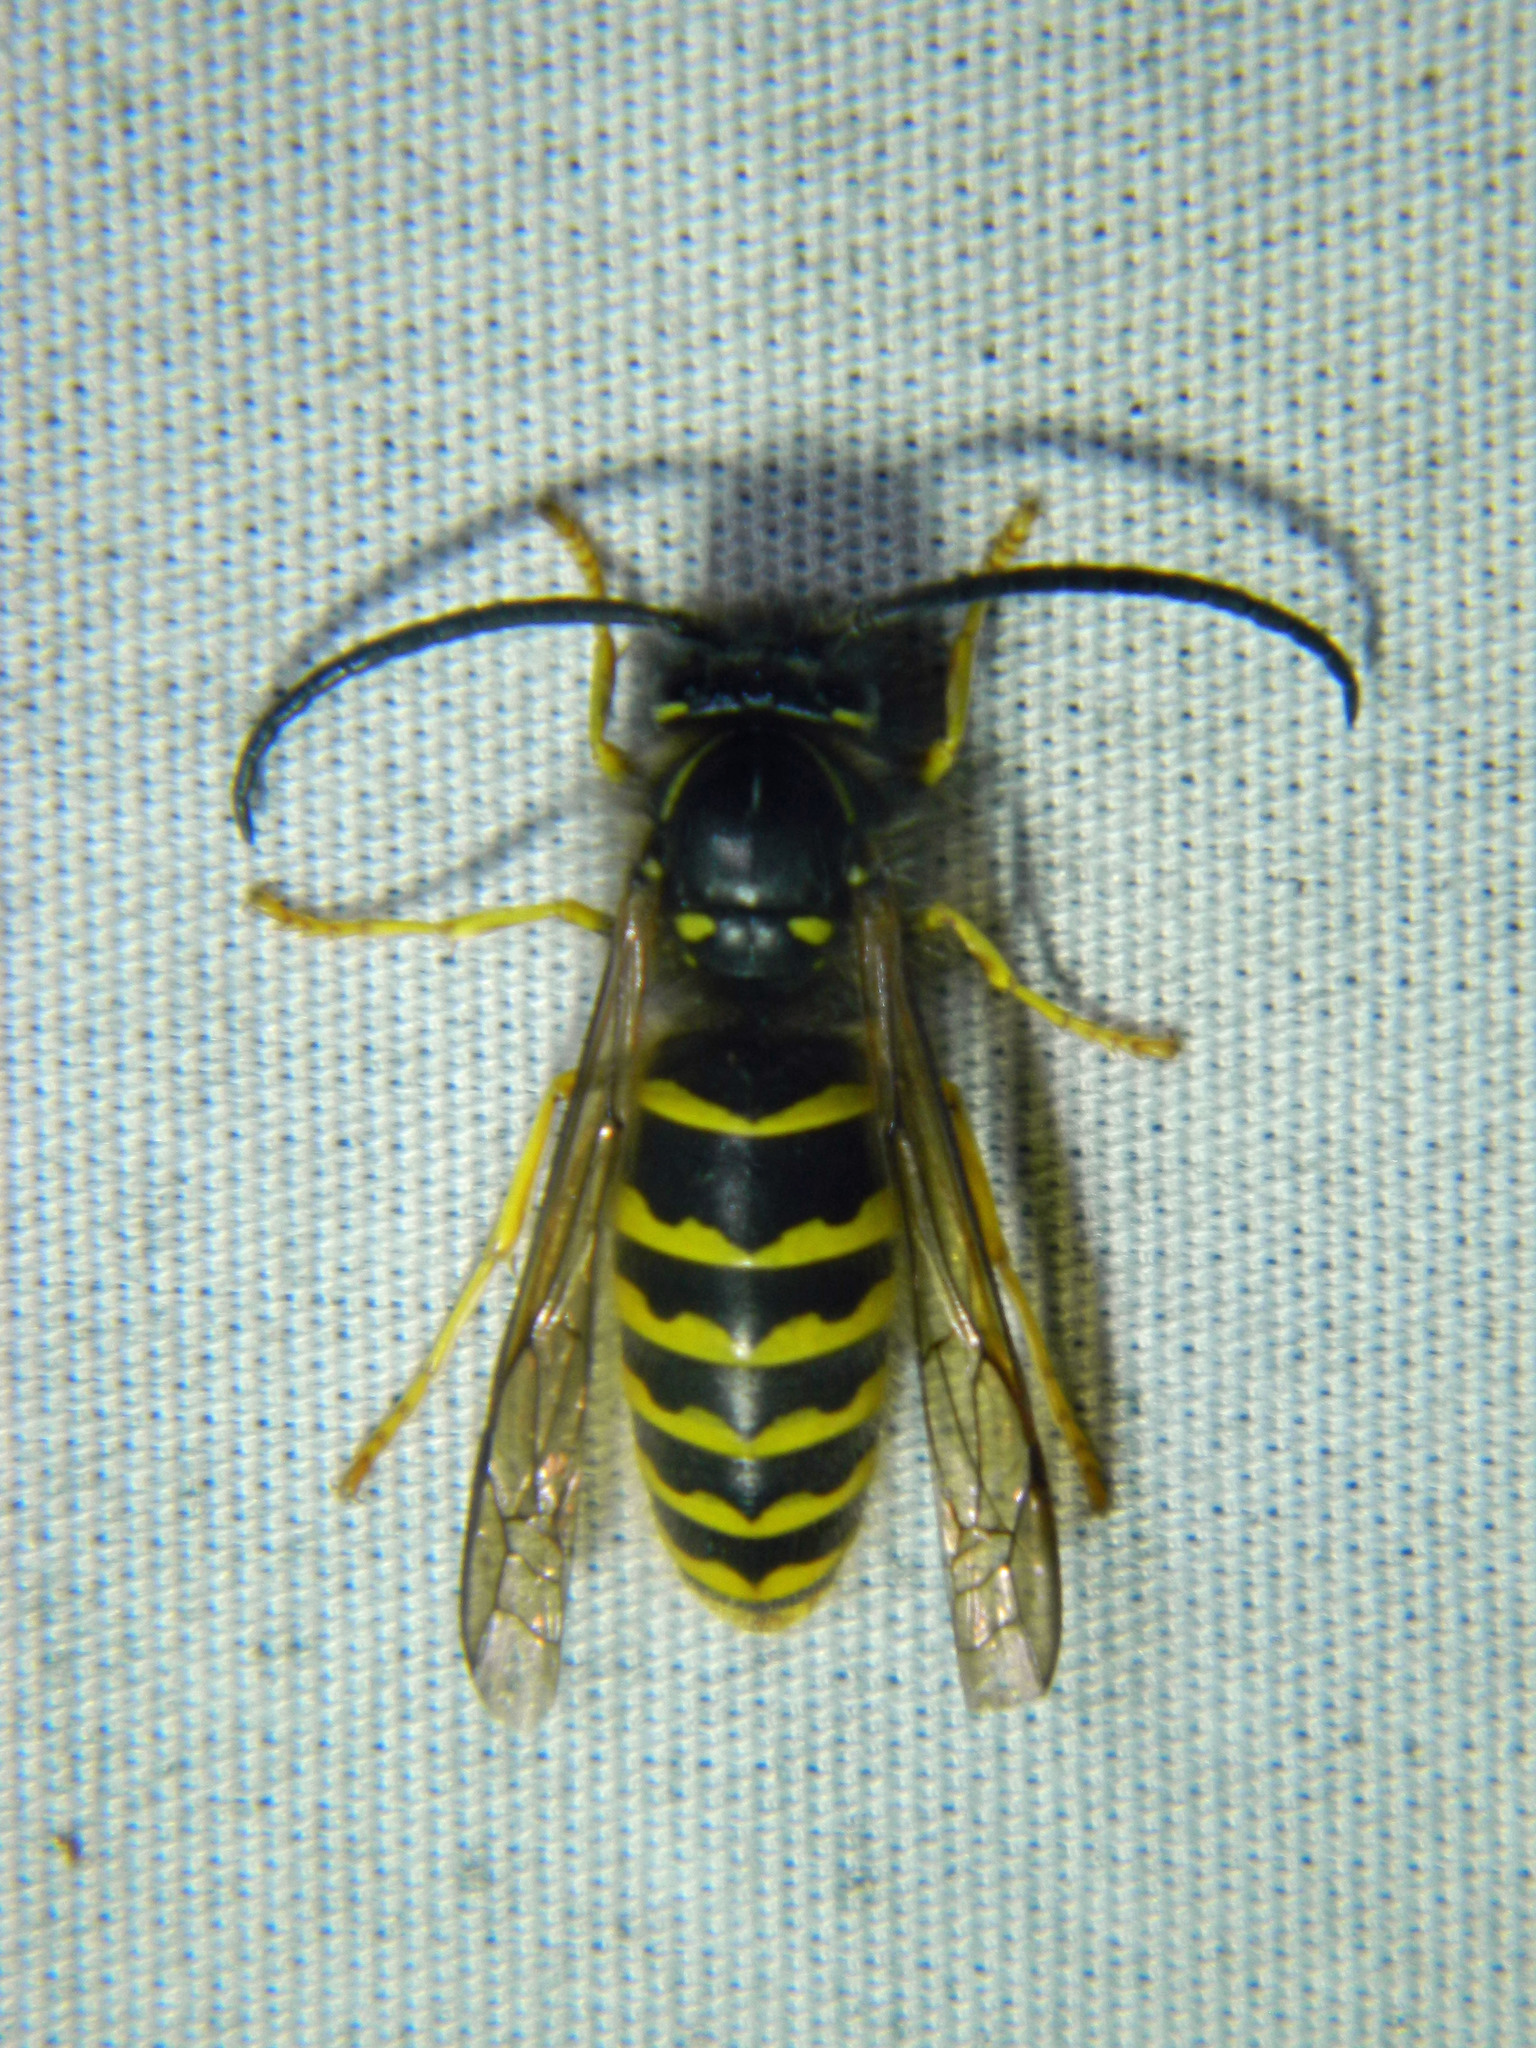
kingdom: Animalia
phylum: Arthropoda
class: Insecta
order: Hymenoptera
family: Vespidae
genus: Vespula
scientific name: Vespula alascensis
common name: Alaska yellowjacket
